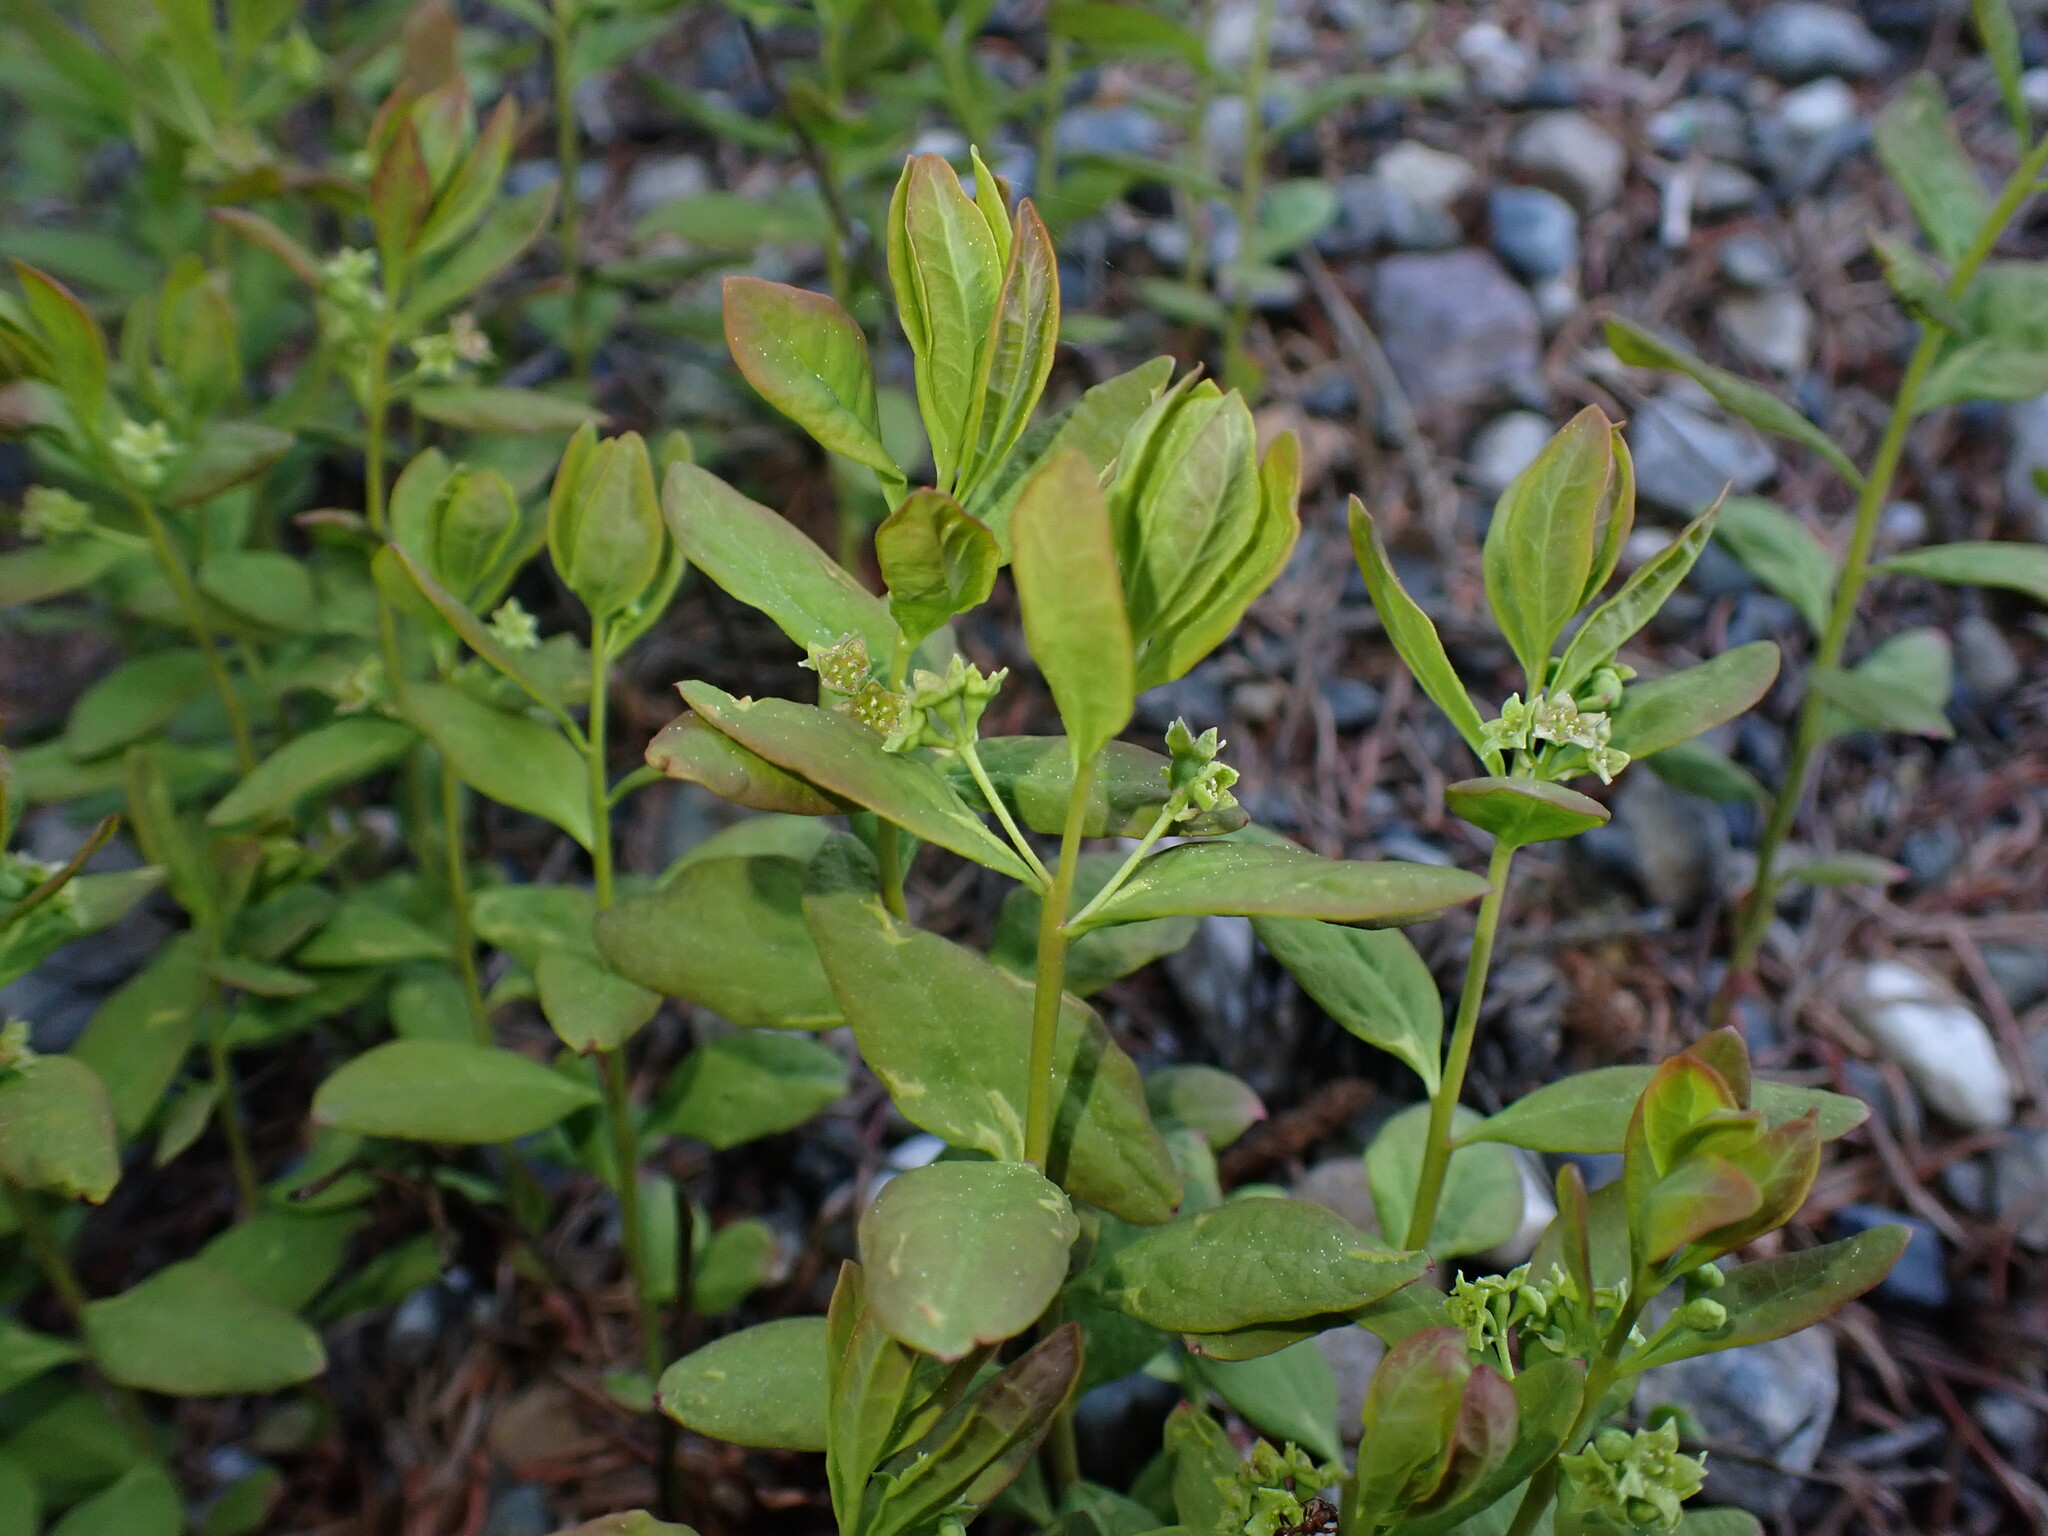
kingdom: Plantae
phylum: Tracheophyta
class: Magnoliopsida
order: Santalales
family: Comandraceae
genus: Geocaulon
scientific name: Geocaulon lividum
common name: Earthberry
